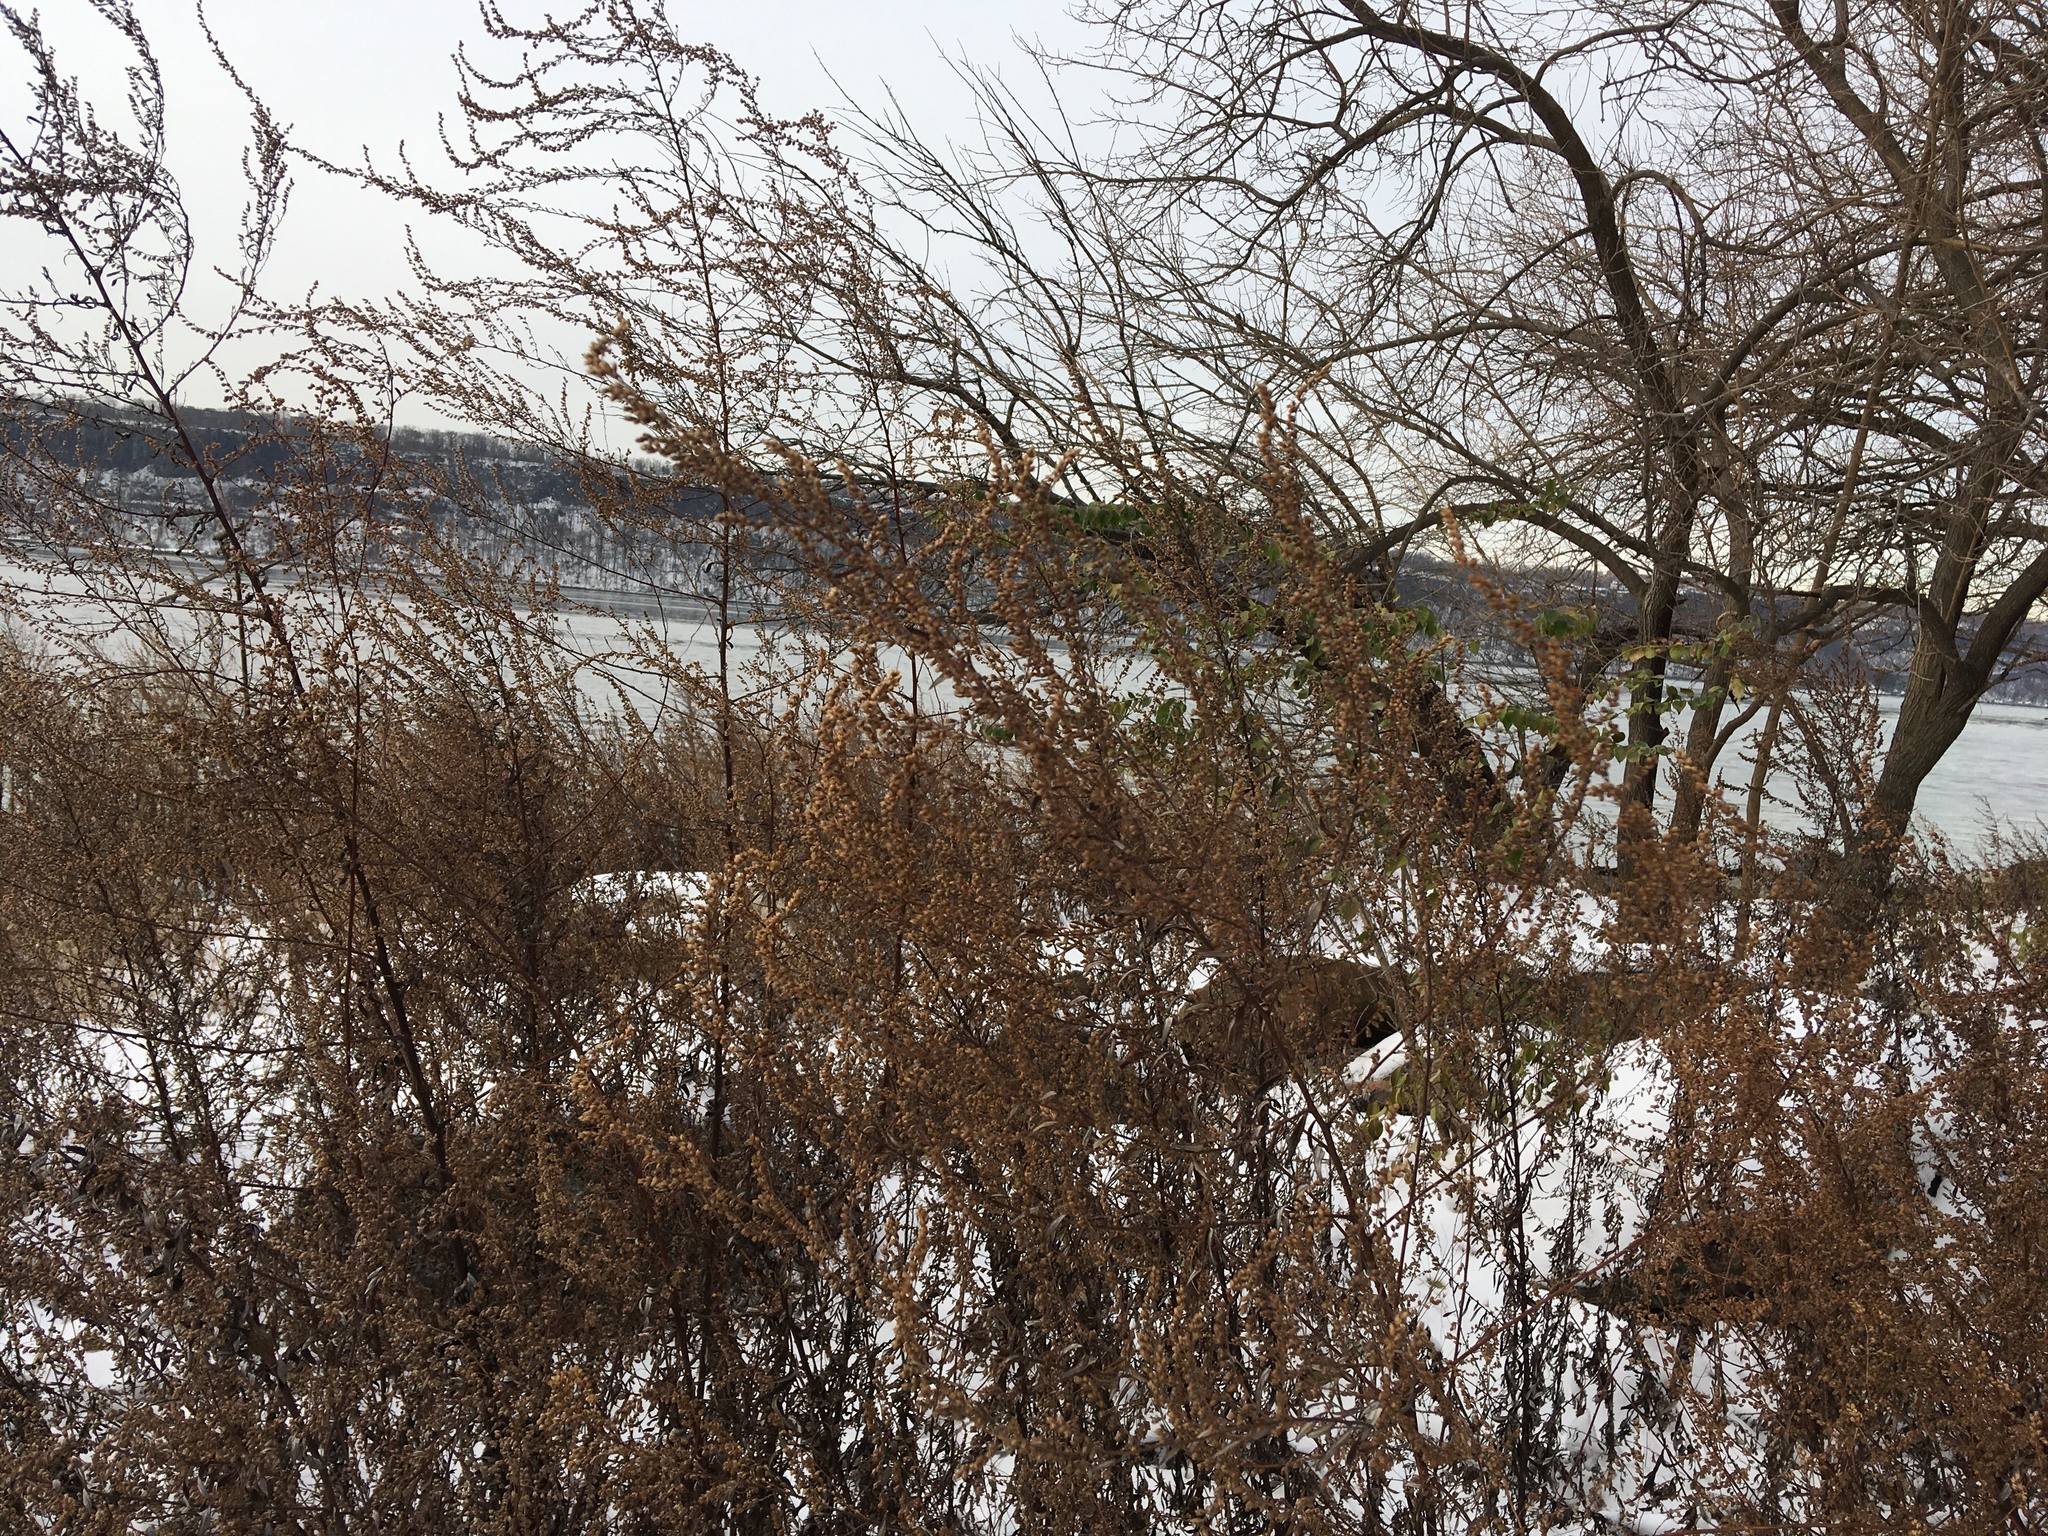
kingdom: Plantae
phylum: Tracheophyta
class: Magnoliopsida
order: Asterales
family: Asteraceae
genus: Artemisia
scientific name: Artemisia vulgaris
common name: Mugwort
